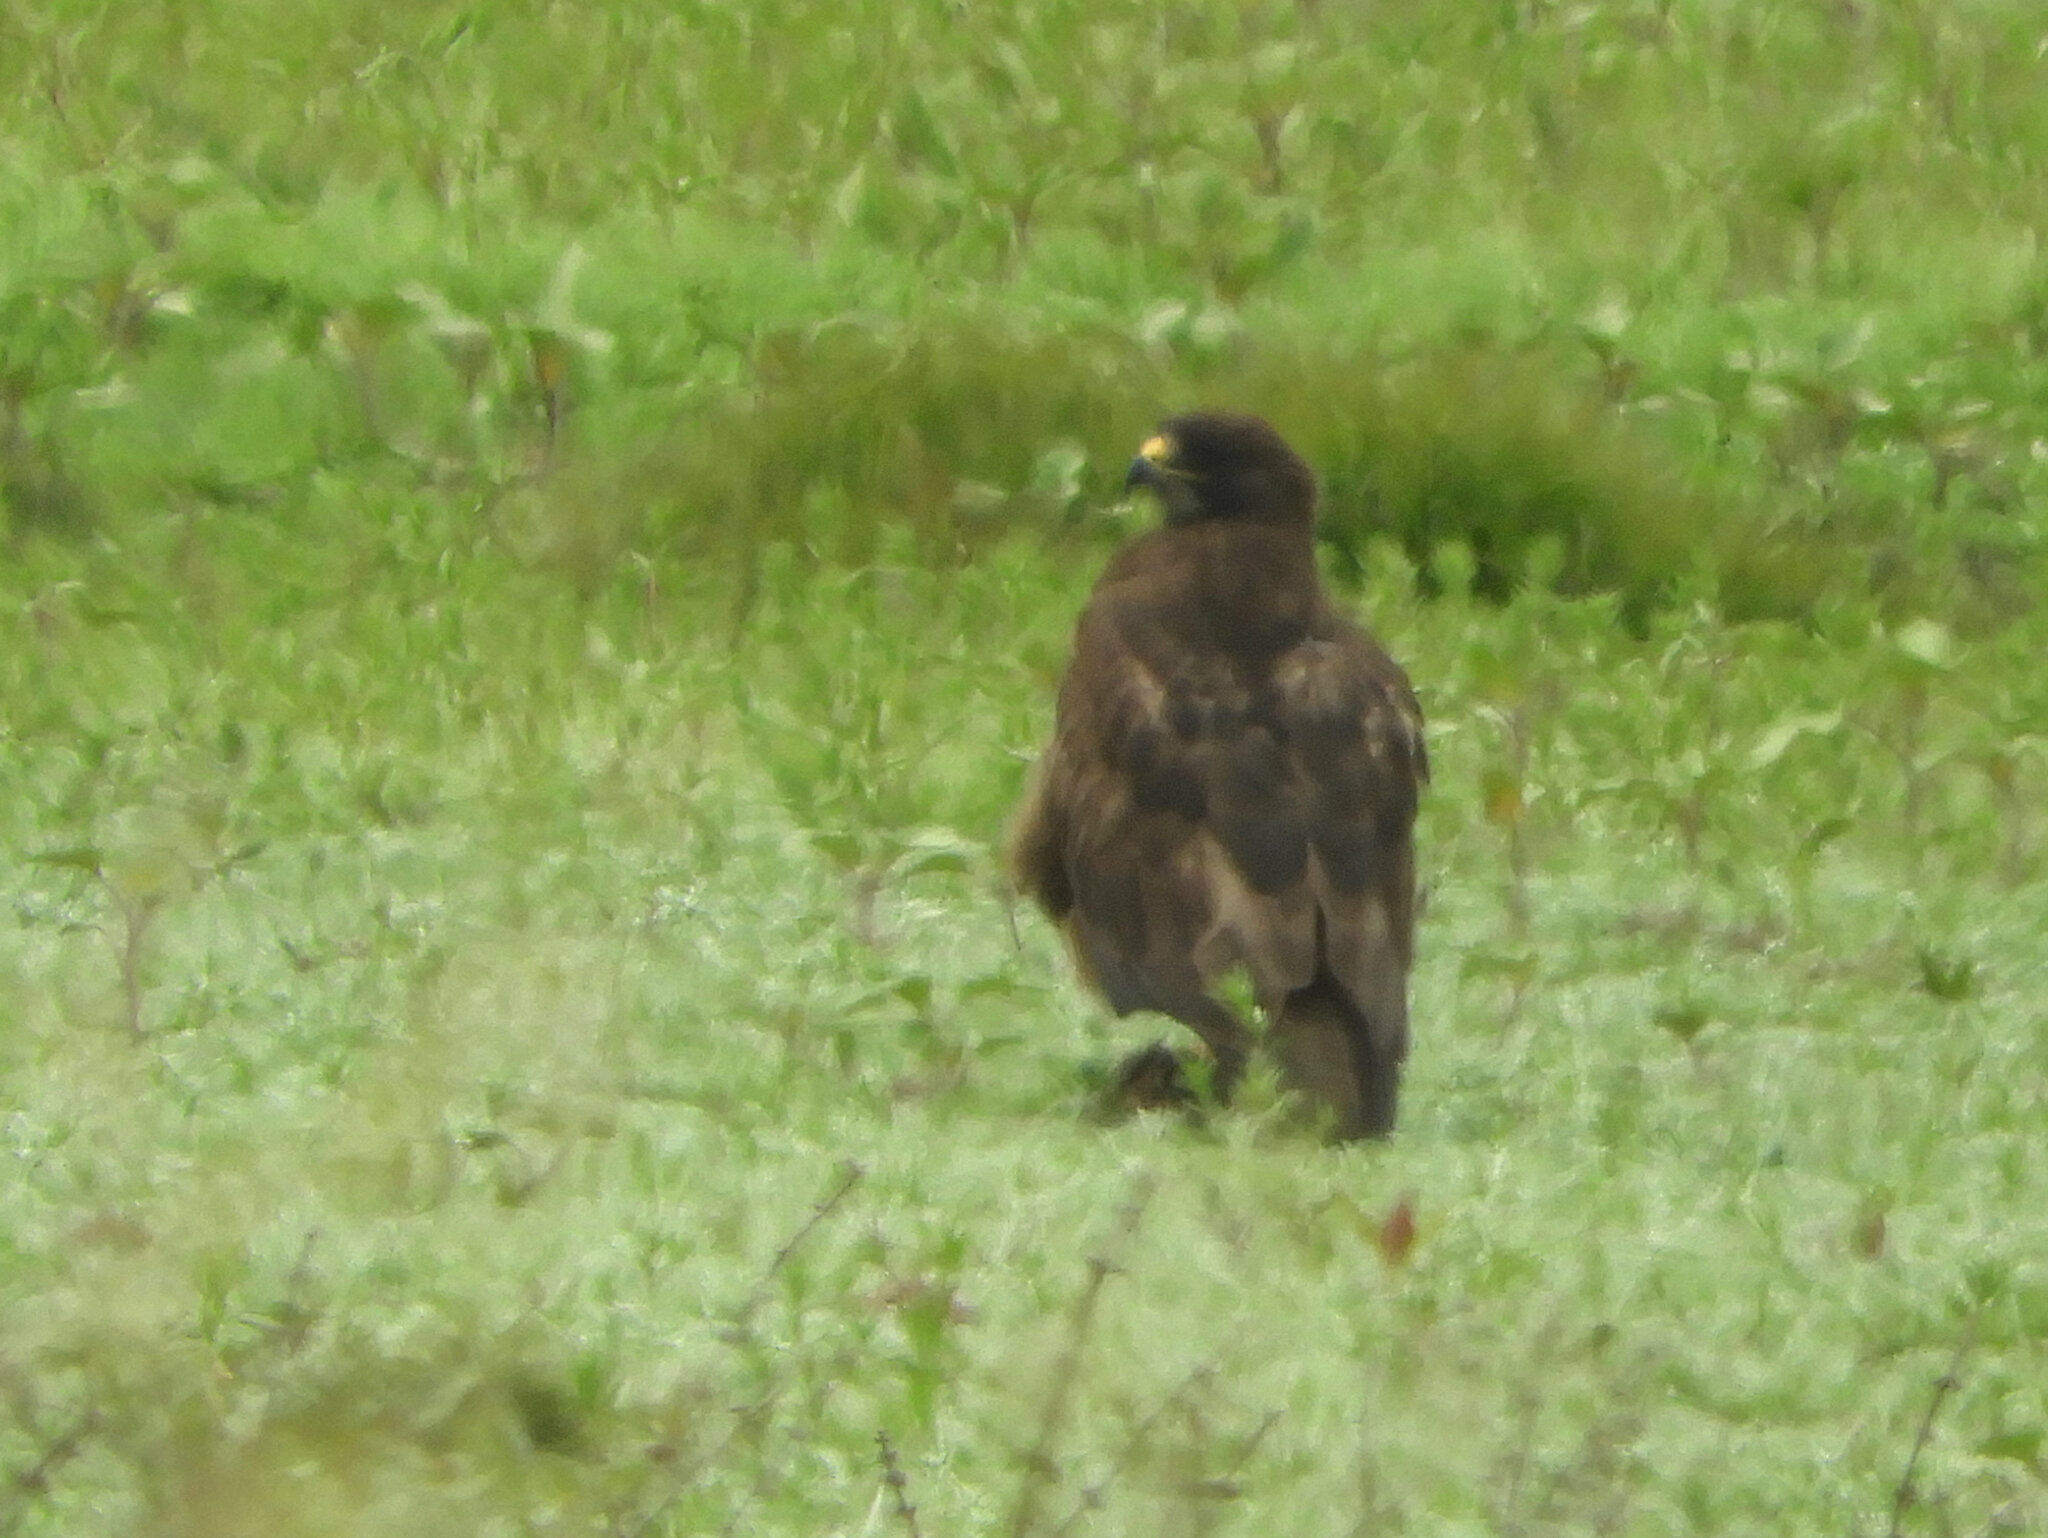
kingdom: Animalia
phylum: Chordata
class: Aves
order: Accipitriformes
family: Accipitridae
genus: Buteo
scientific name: Buteo swainsoni
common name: Swainson's hawk
